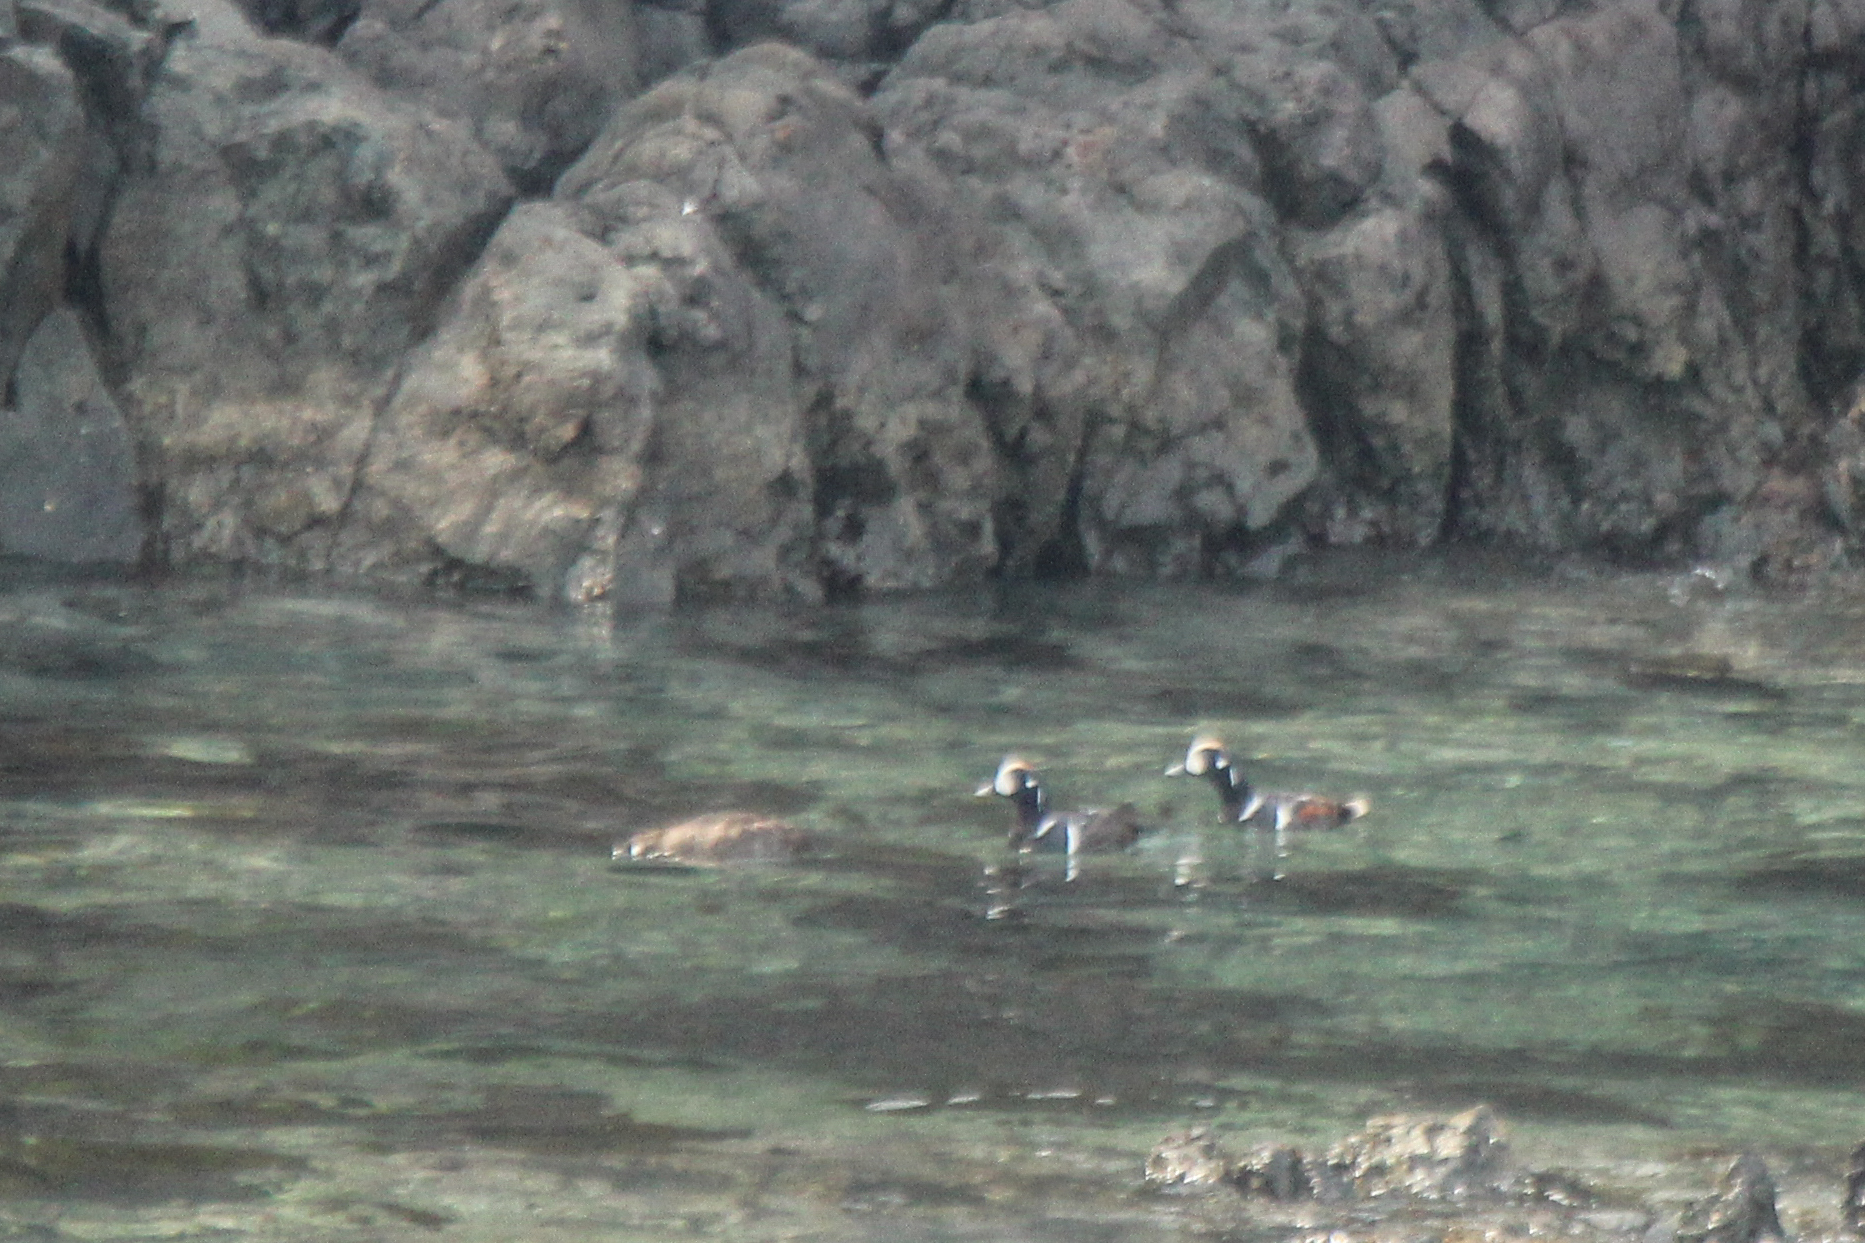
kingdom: Animalia
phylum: Chordata
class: Aves
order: Anseriformes
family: Anatidae
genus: Histrionicus
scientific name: Histrionicus histrionicus
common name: Harlequin duck
